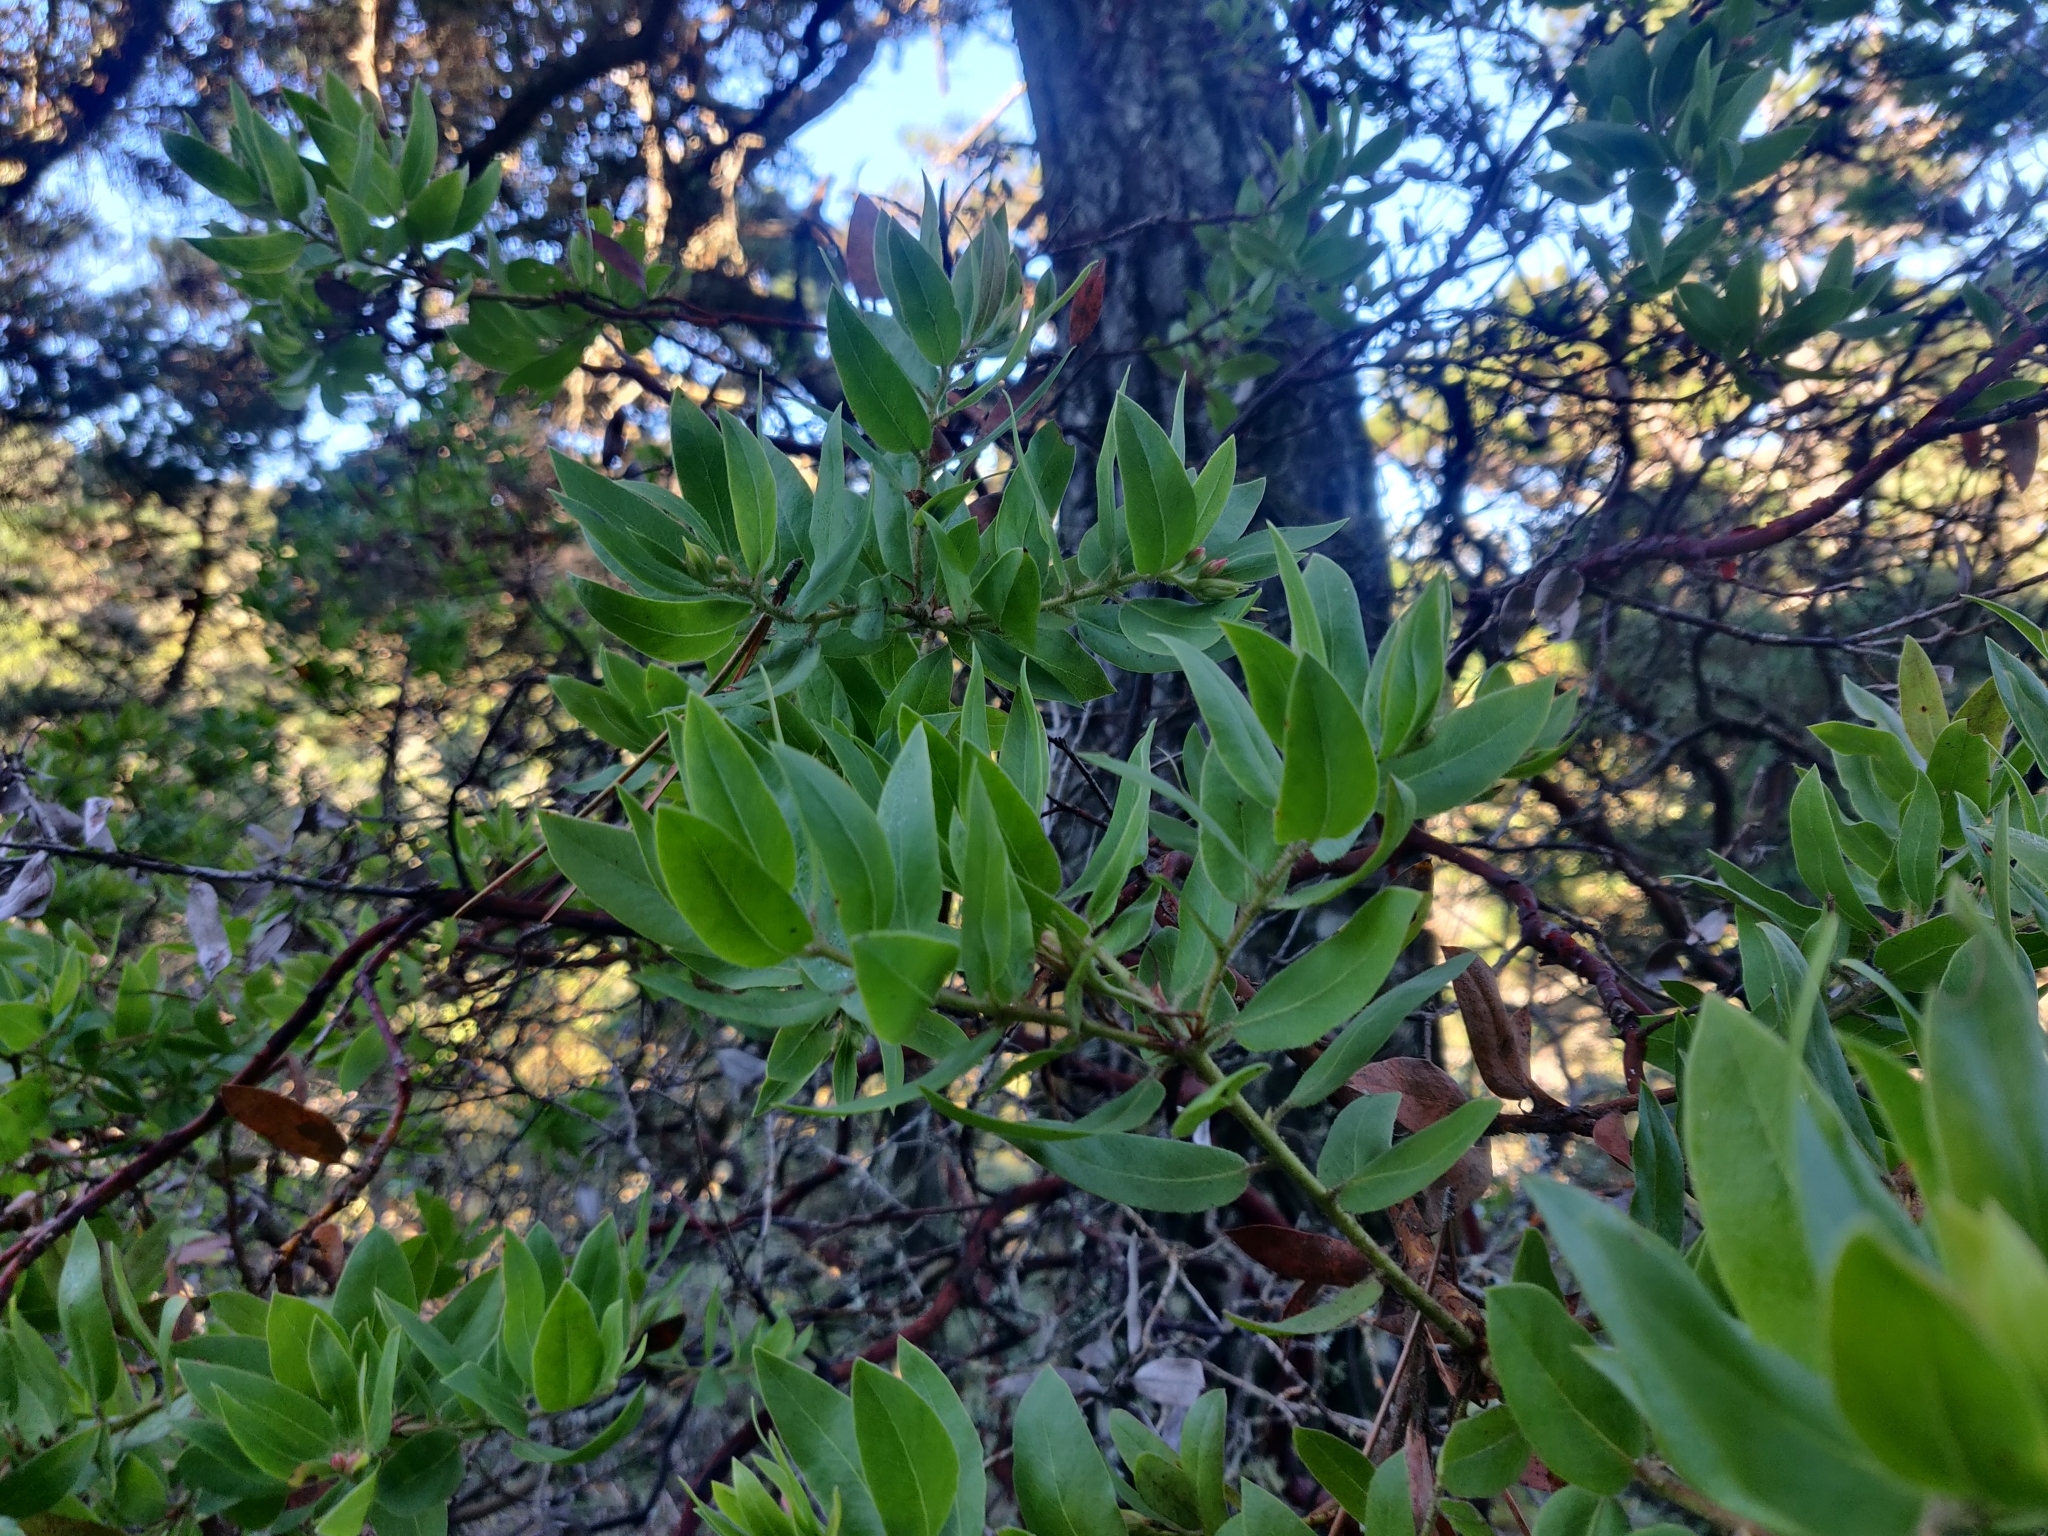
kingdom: Plantae
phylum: Tracheophyta
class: Magnoliopsida
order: Ericales
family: Ericaceae
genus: Arctostaphylos
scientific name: Arctostaphylos virgata
